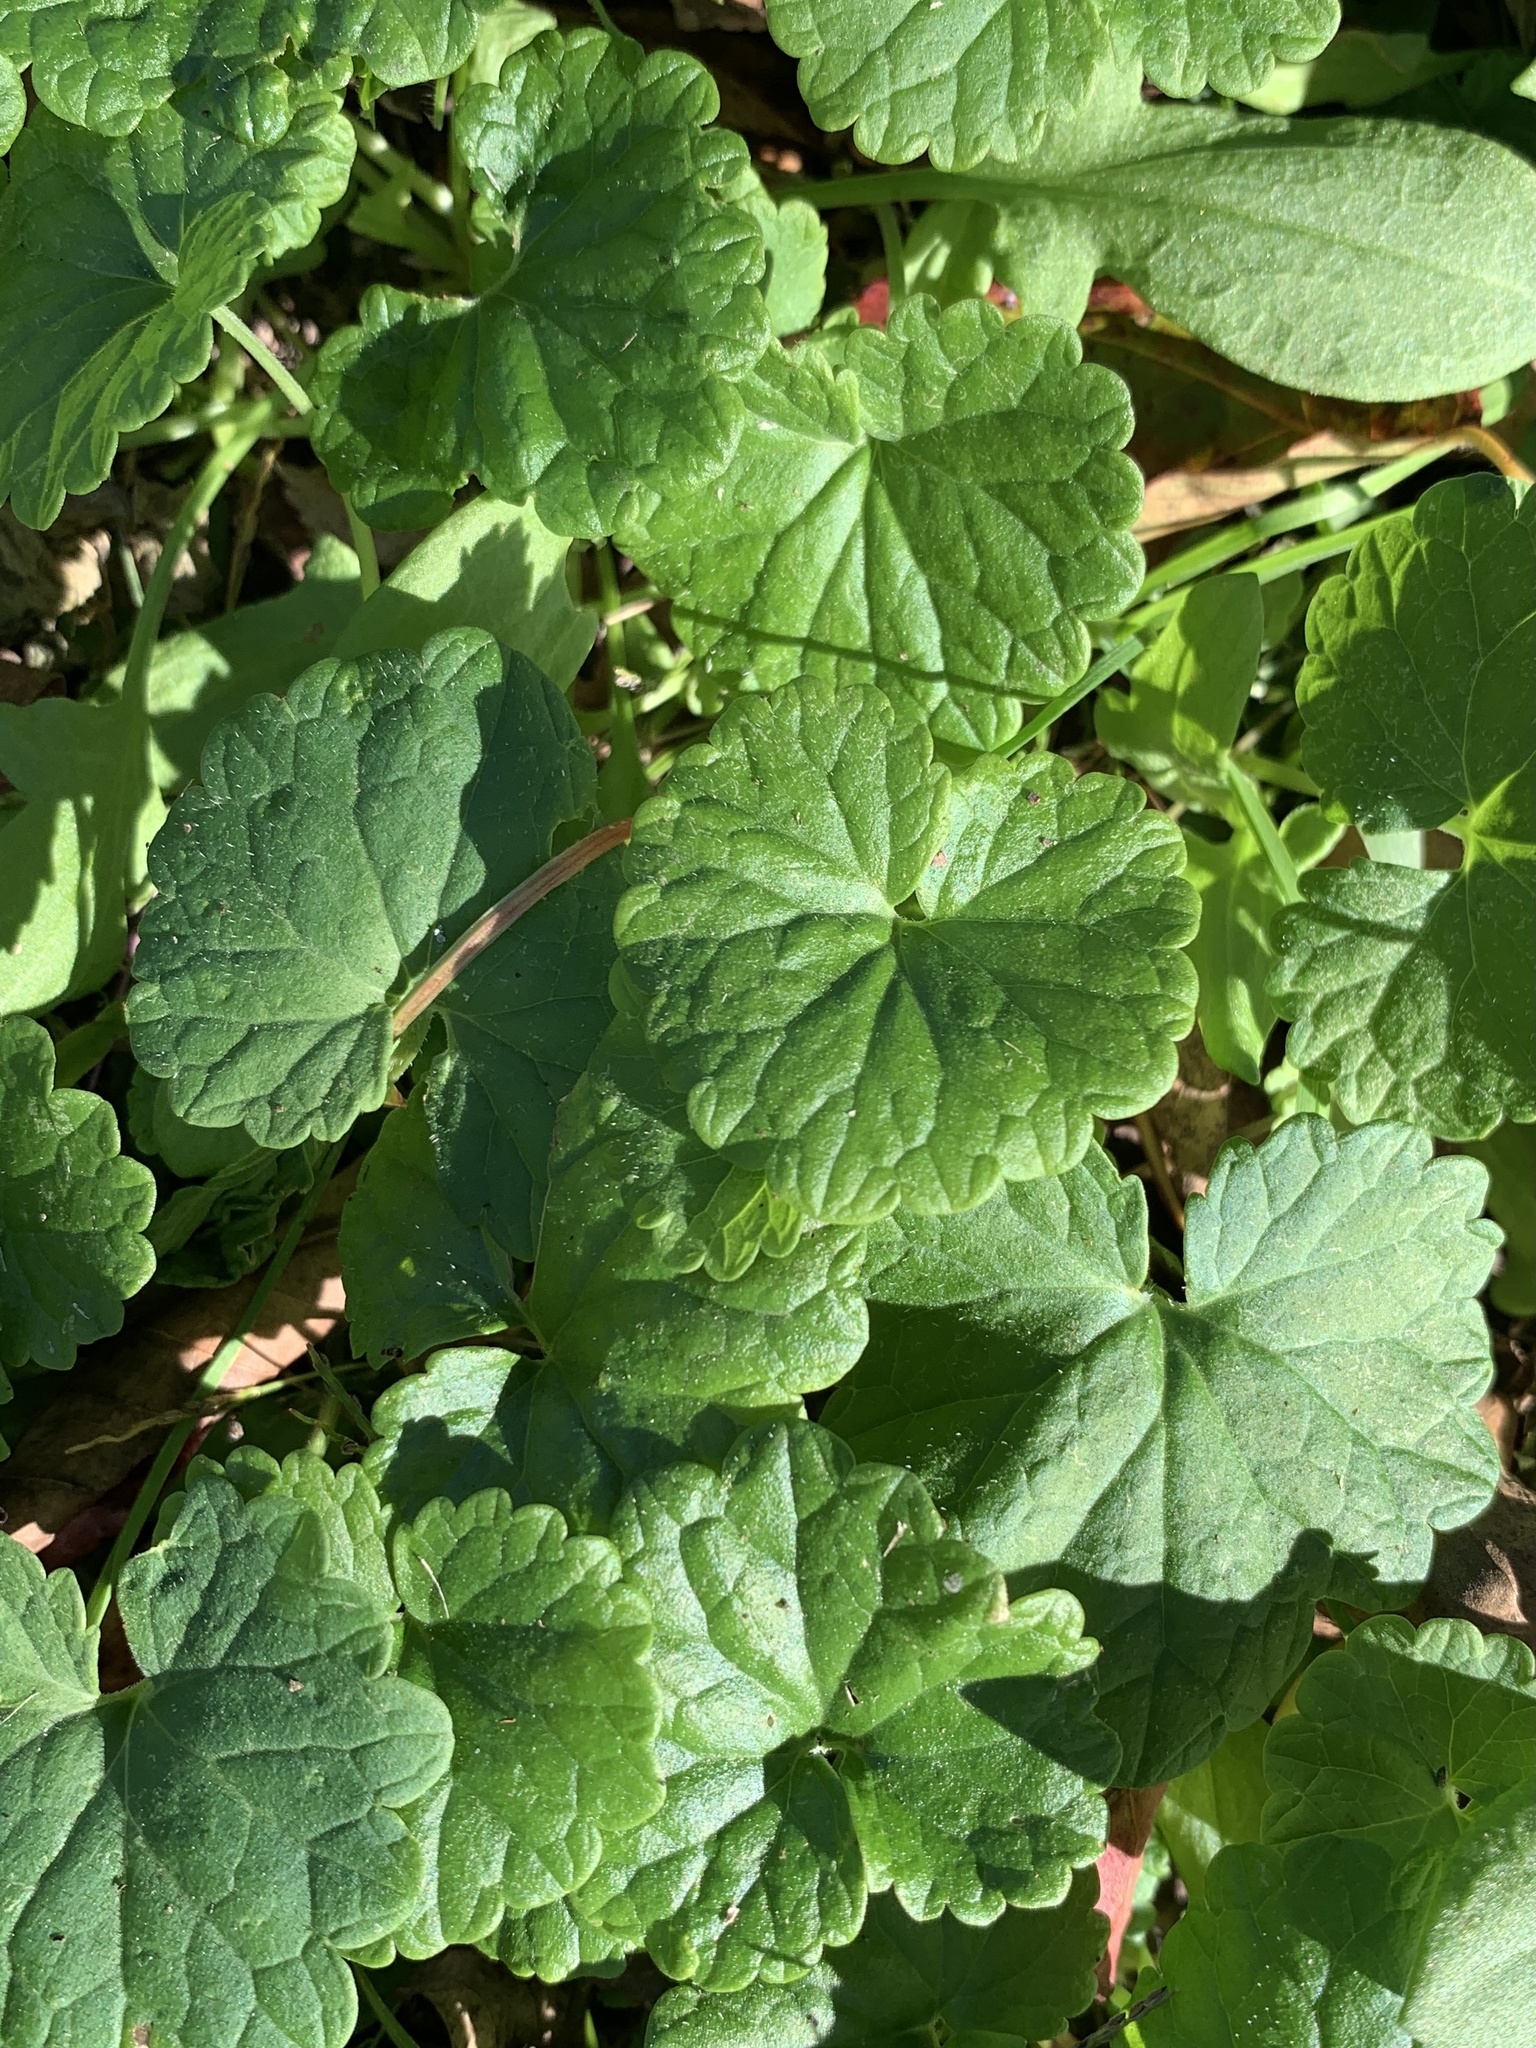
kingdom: Plantae
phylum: Tracheophyta
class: Magnoliopsida
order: Lamiales
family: Lamiaceae
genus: Glechoma
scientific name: Glechoma hederacea
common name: Ground ivy
